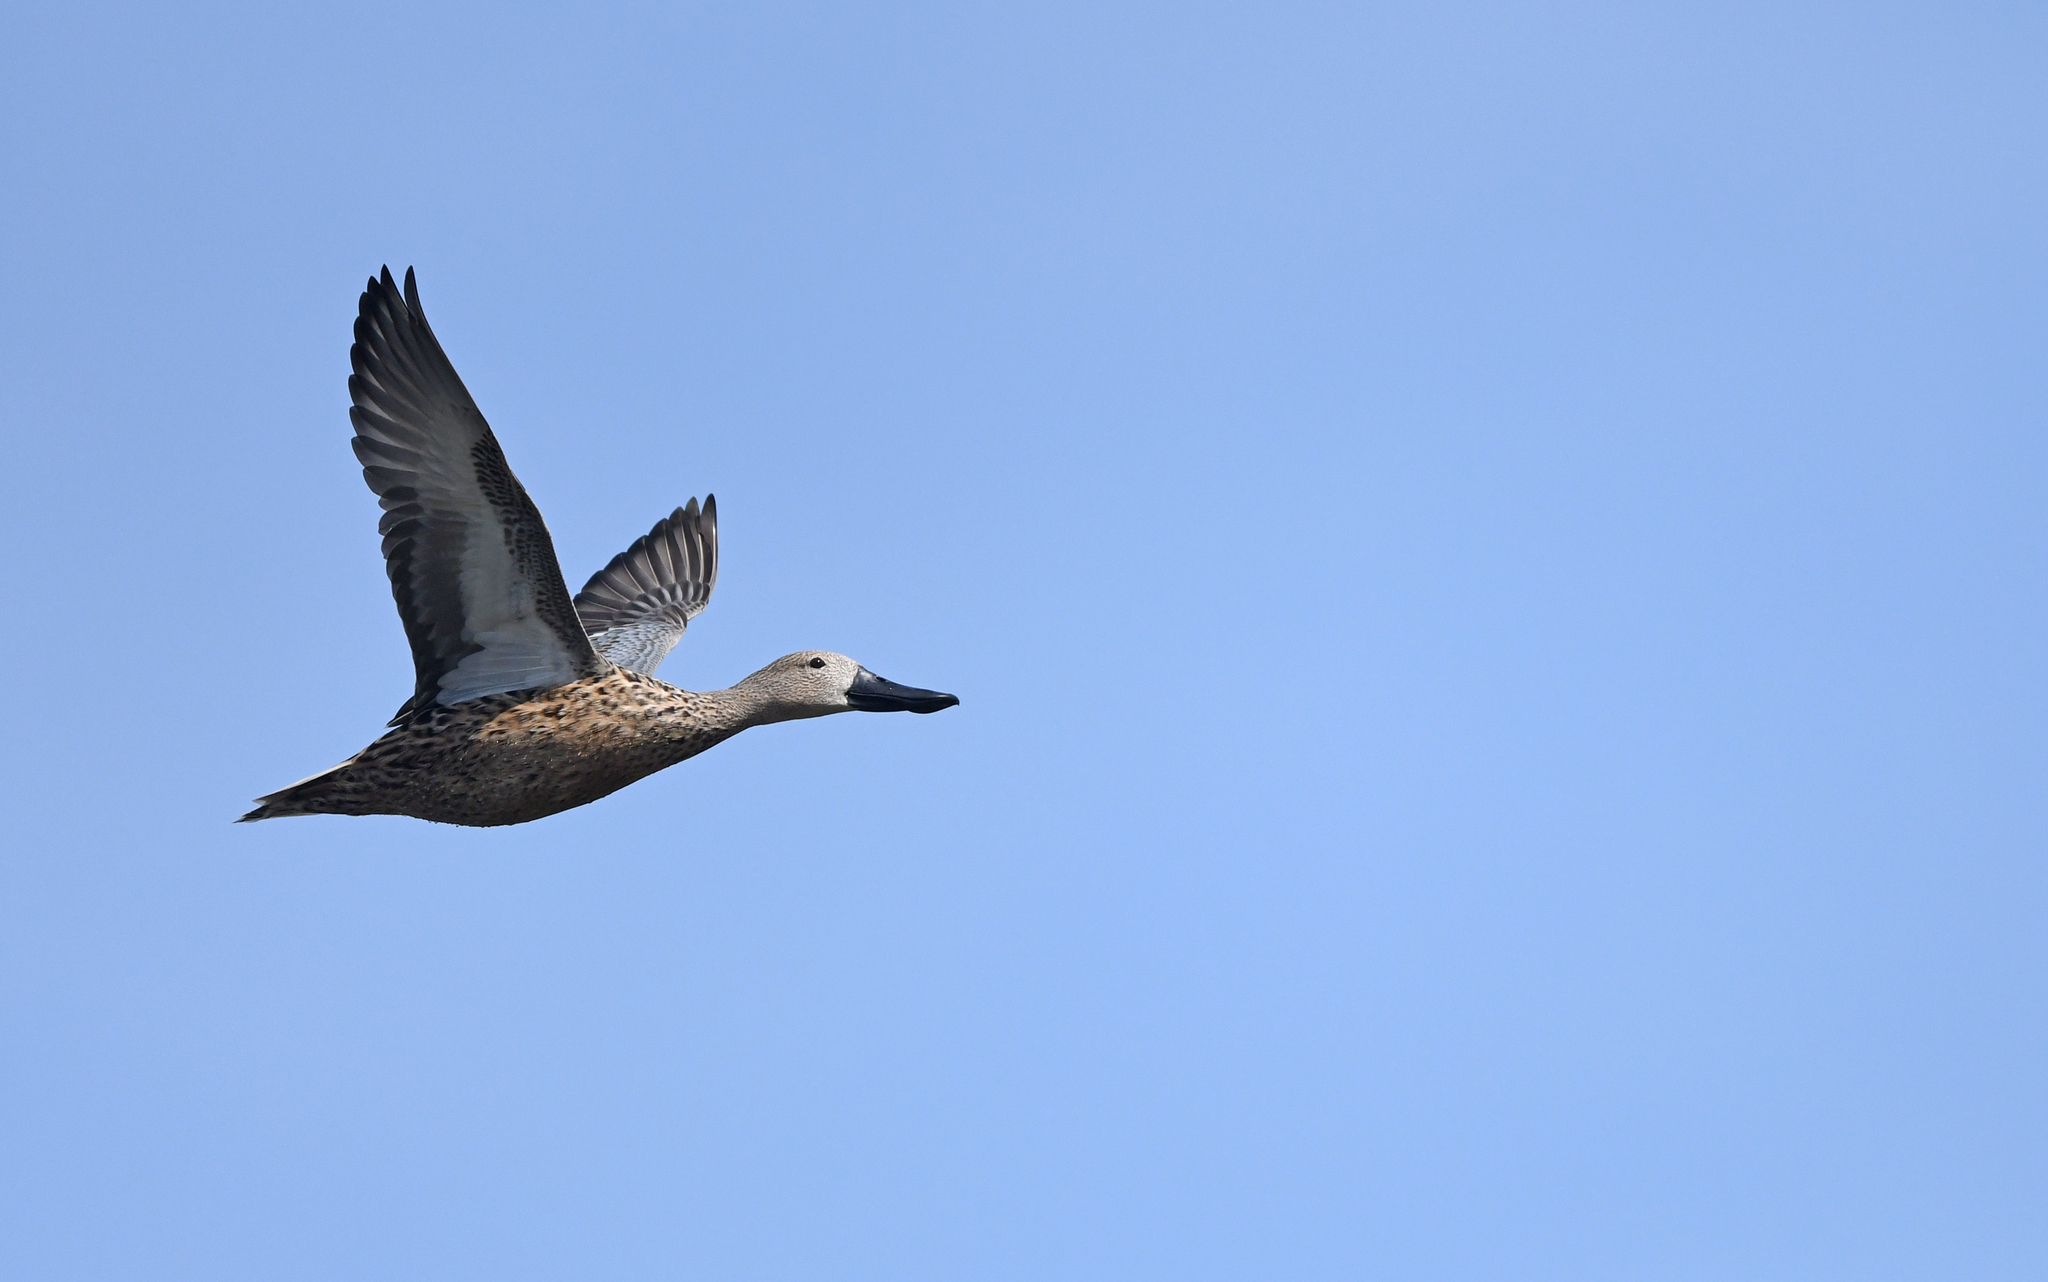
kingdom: Animalia
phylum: Chordata
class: Aves
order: Anseriformes
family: Anatidae
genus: Spatula
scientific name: Spatula platalea
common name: Red shoveler
